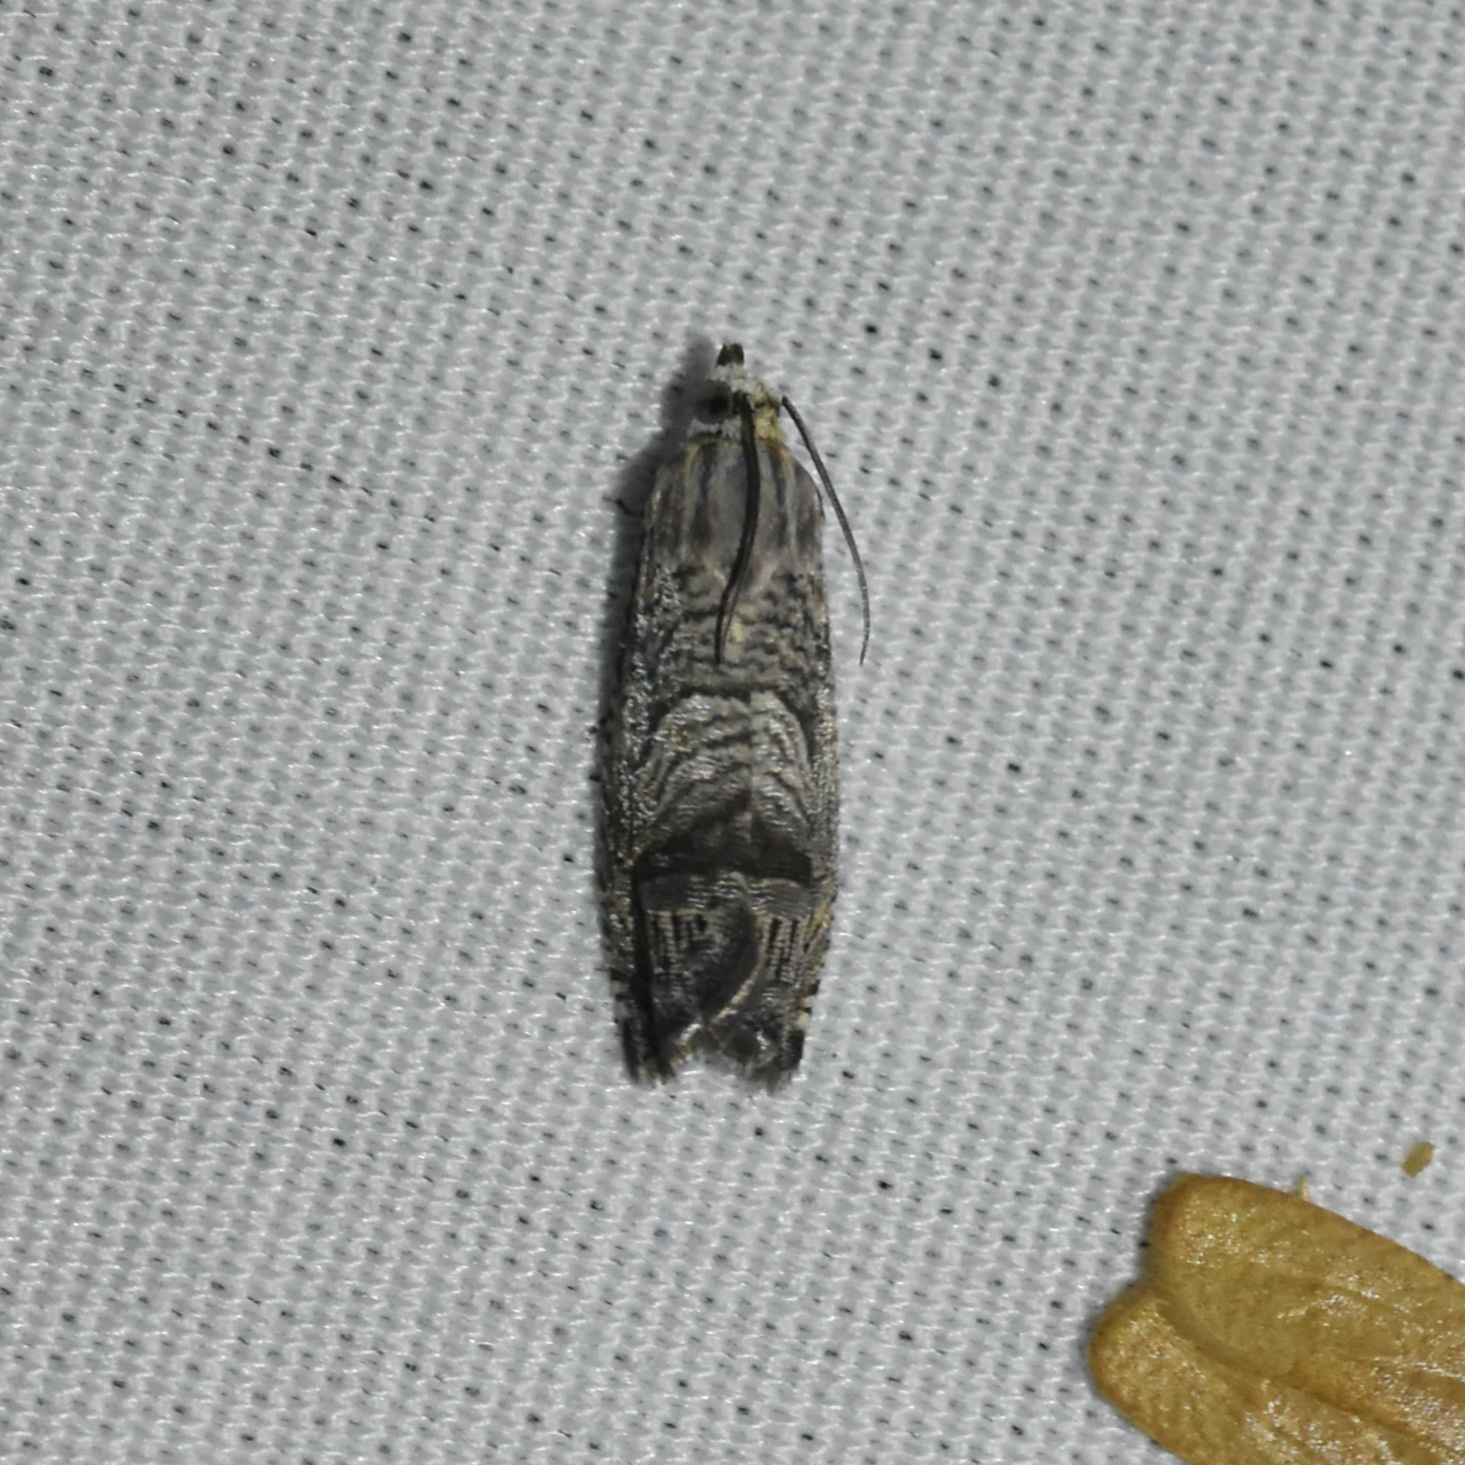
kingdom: Animalia
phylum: Arthropoda
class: Insecta
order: Lepidoptera
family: Tortricidae
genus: Ofatulena
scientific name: Ofatulena duodecemstriata
